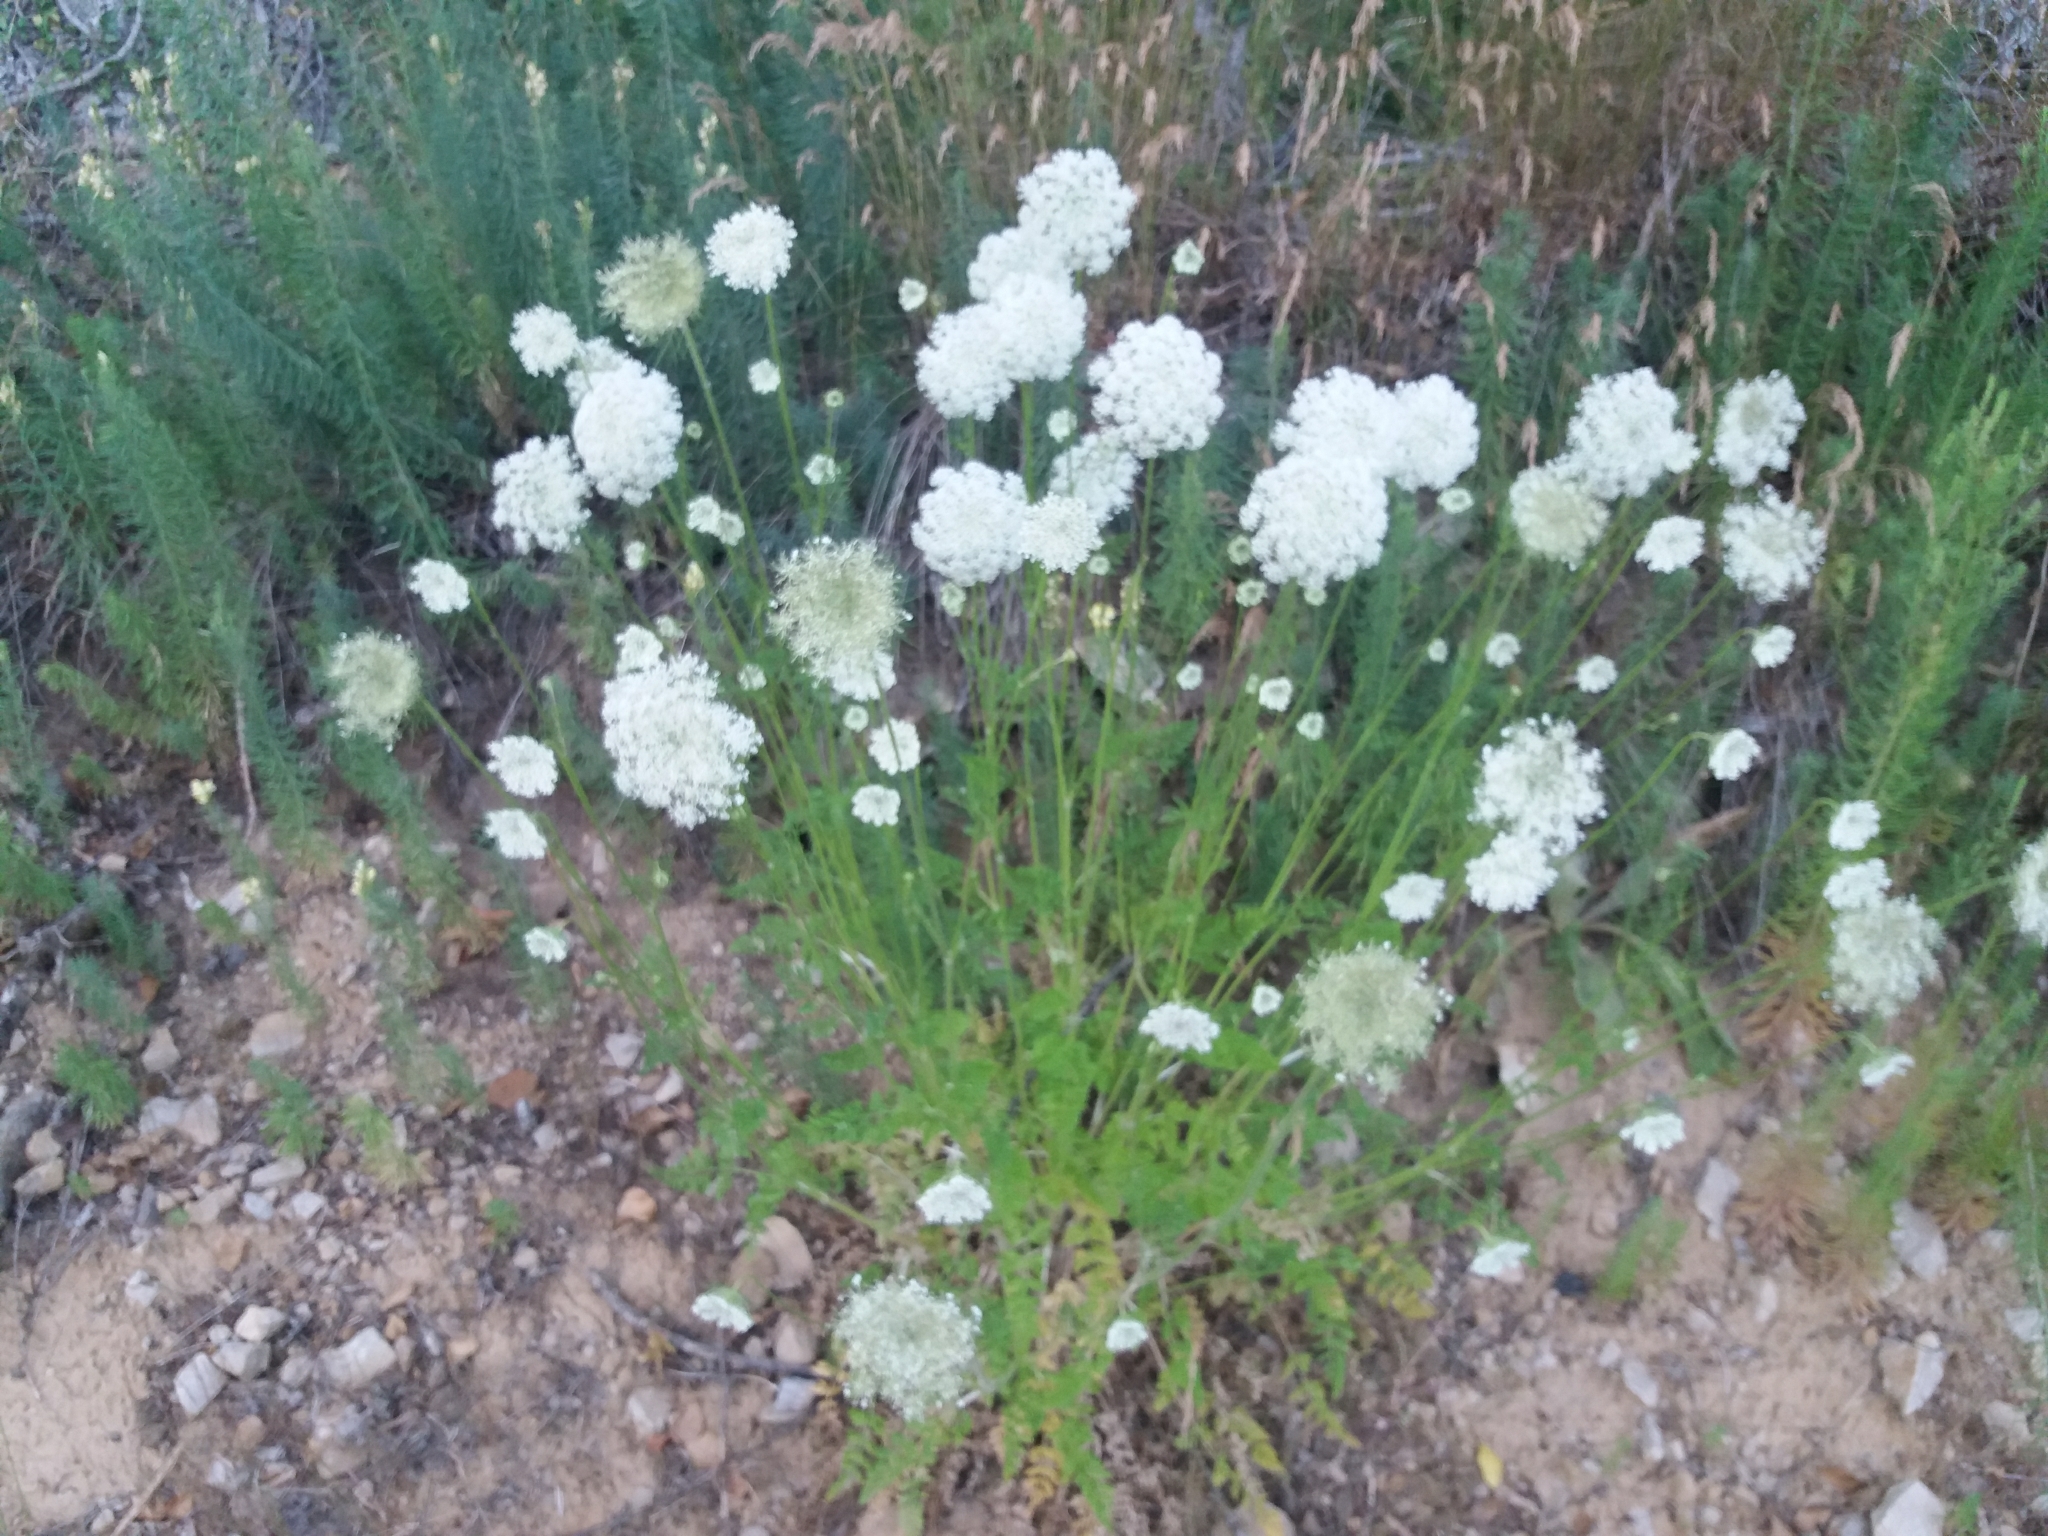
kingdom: Plantae
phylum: Tracheophyta
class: Magnoliopsida
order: Apiales
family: Apiaceae
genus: Daucus
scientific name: Daucus carota
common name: Wild carrot
